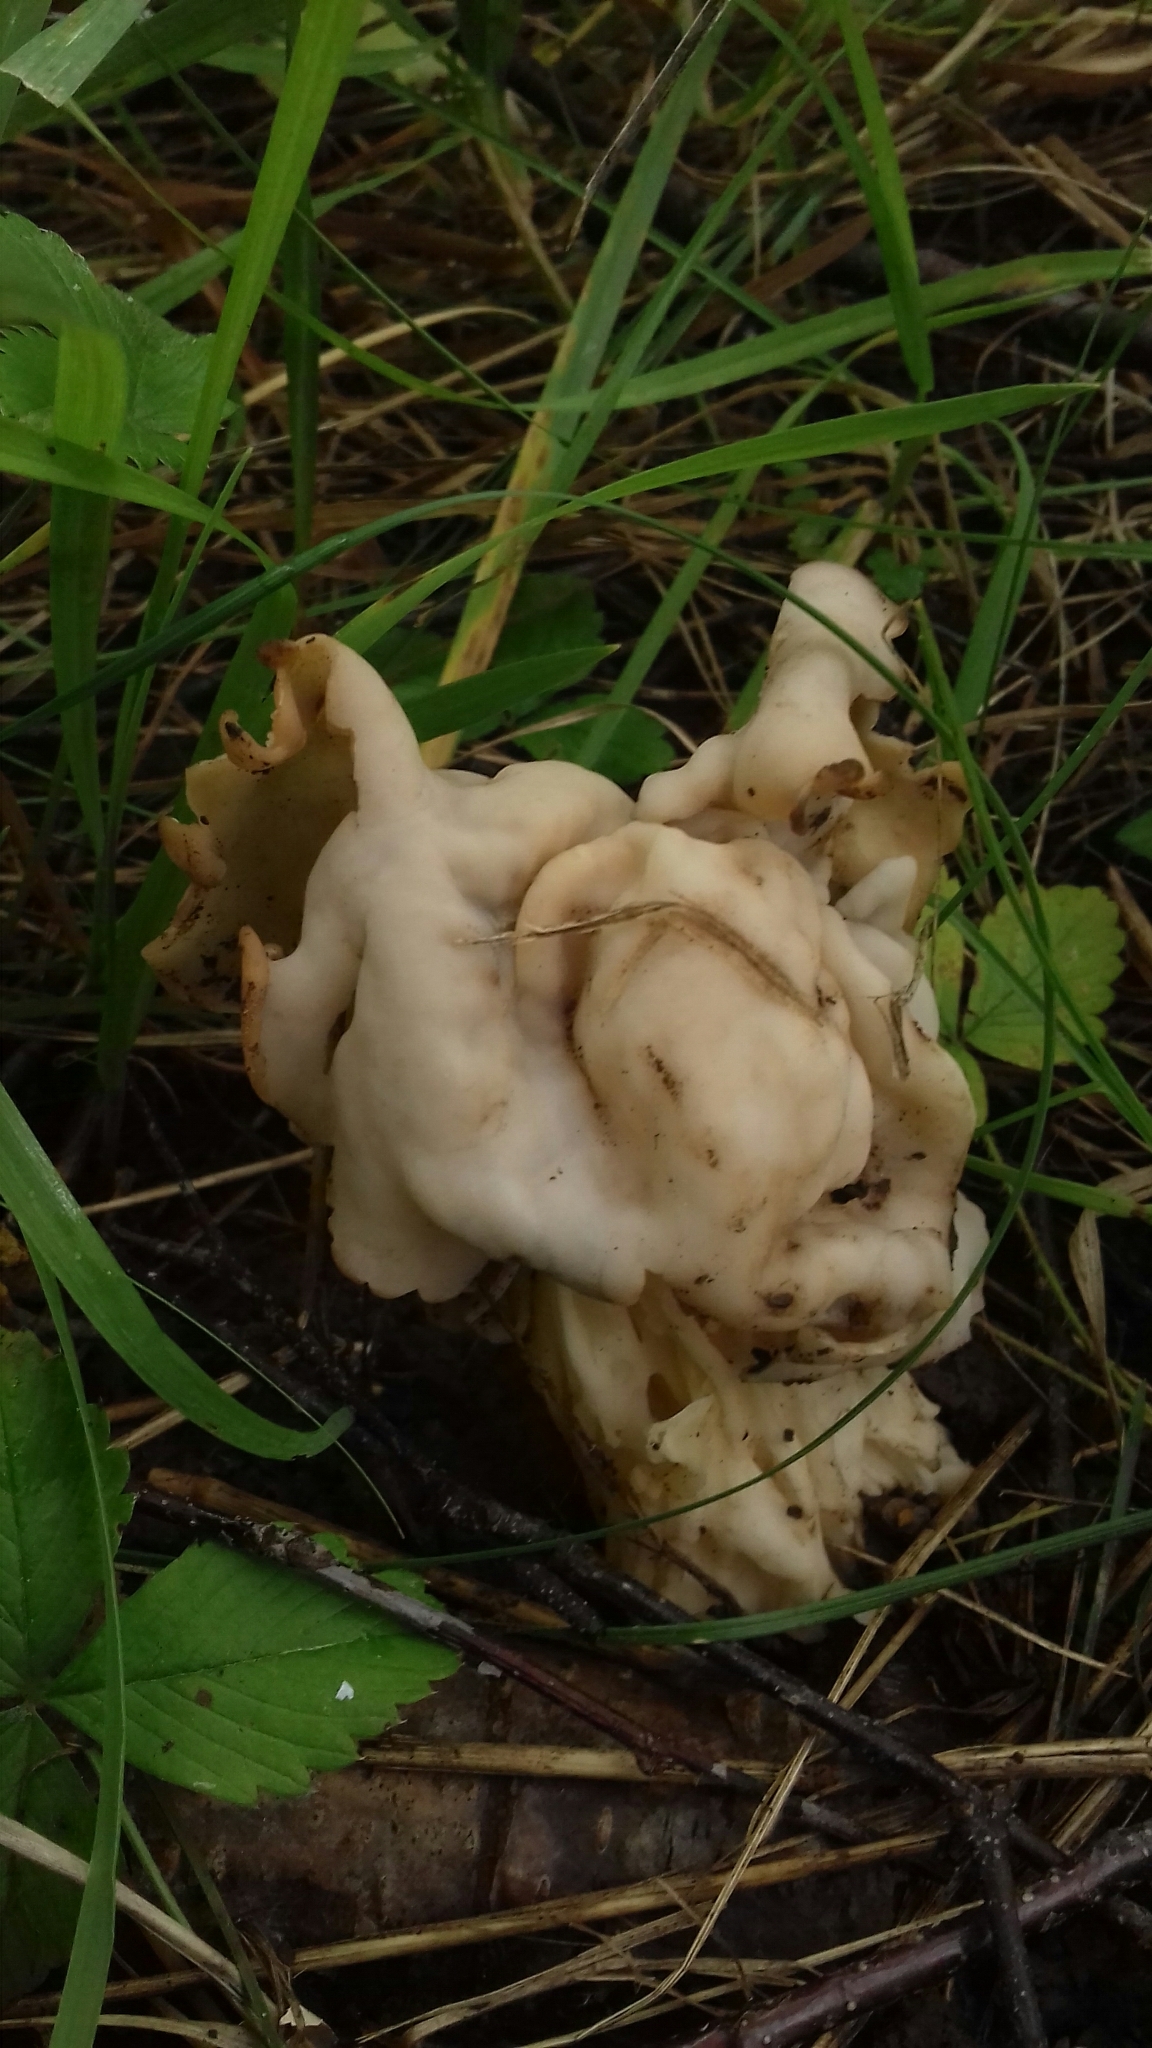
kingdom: Fungi
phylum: Ascomycota
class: Pezizomycetes
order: Pezizales
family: Helvellaceae
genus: Helvella
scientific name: Helvella crispa
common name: White saddle
